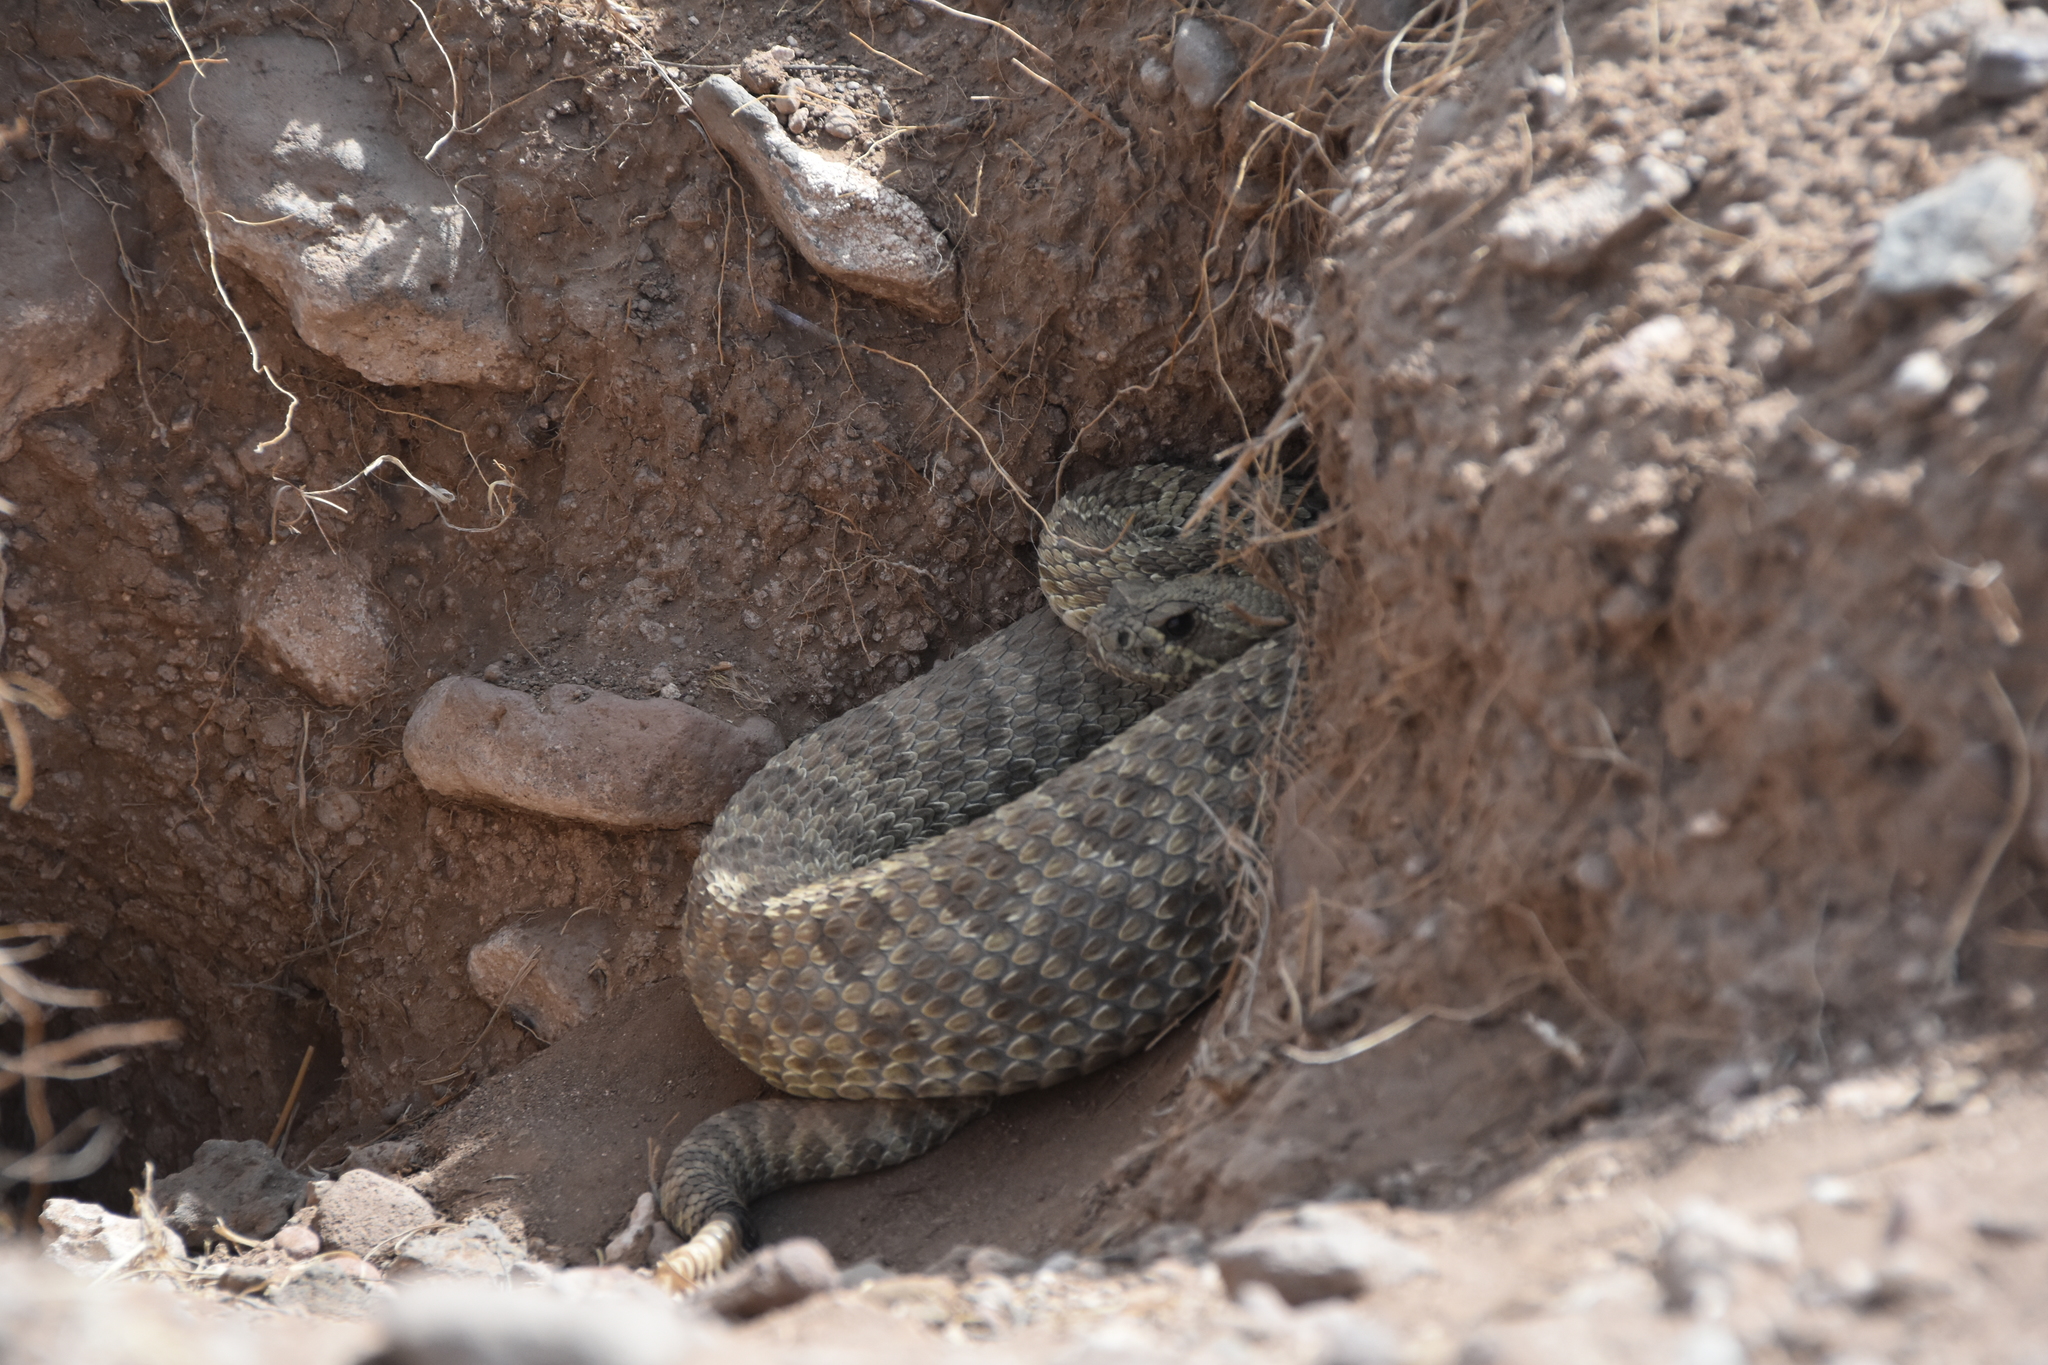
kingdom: Animalia
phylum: Chordata
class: Squamata
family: Viperidae
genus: Crotalus
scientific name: Crotalus viridis
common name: Prairie rattlesnake
